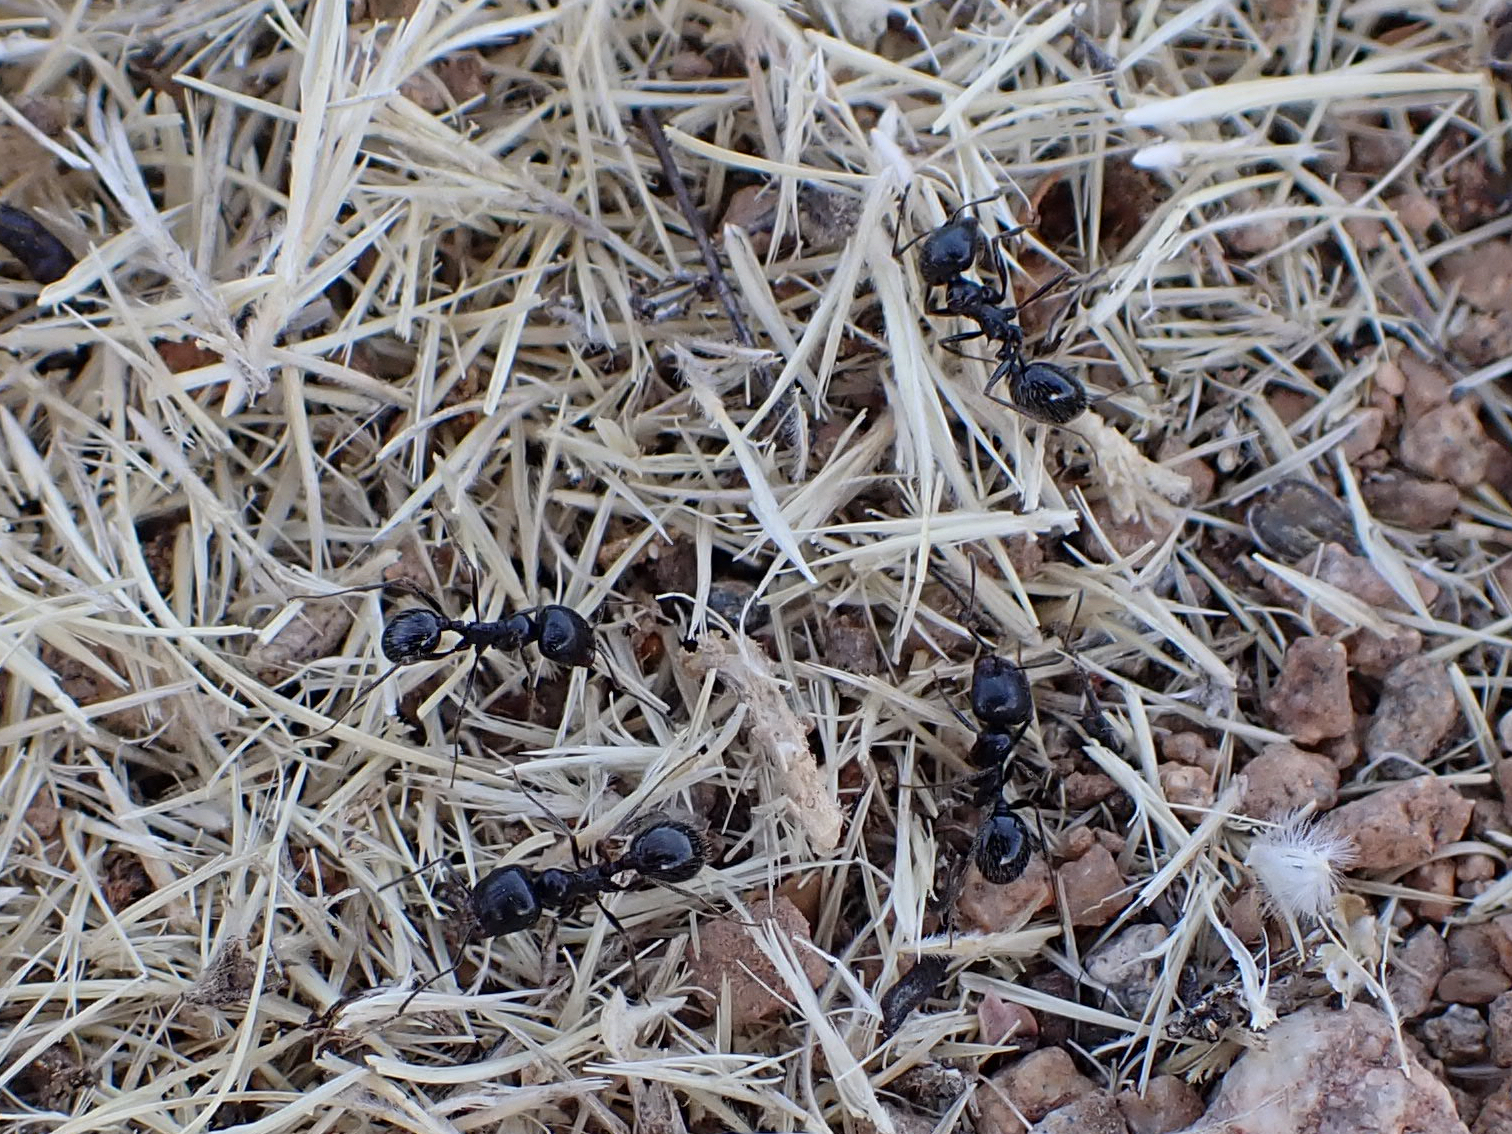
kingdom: Animalia
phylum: Arthropoda
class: Insecta
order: Hymenoptera
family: Formicidae
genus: Messor
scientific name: Messor pergandei
